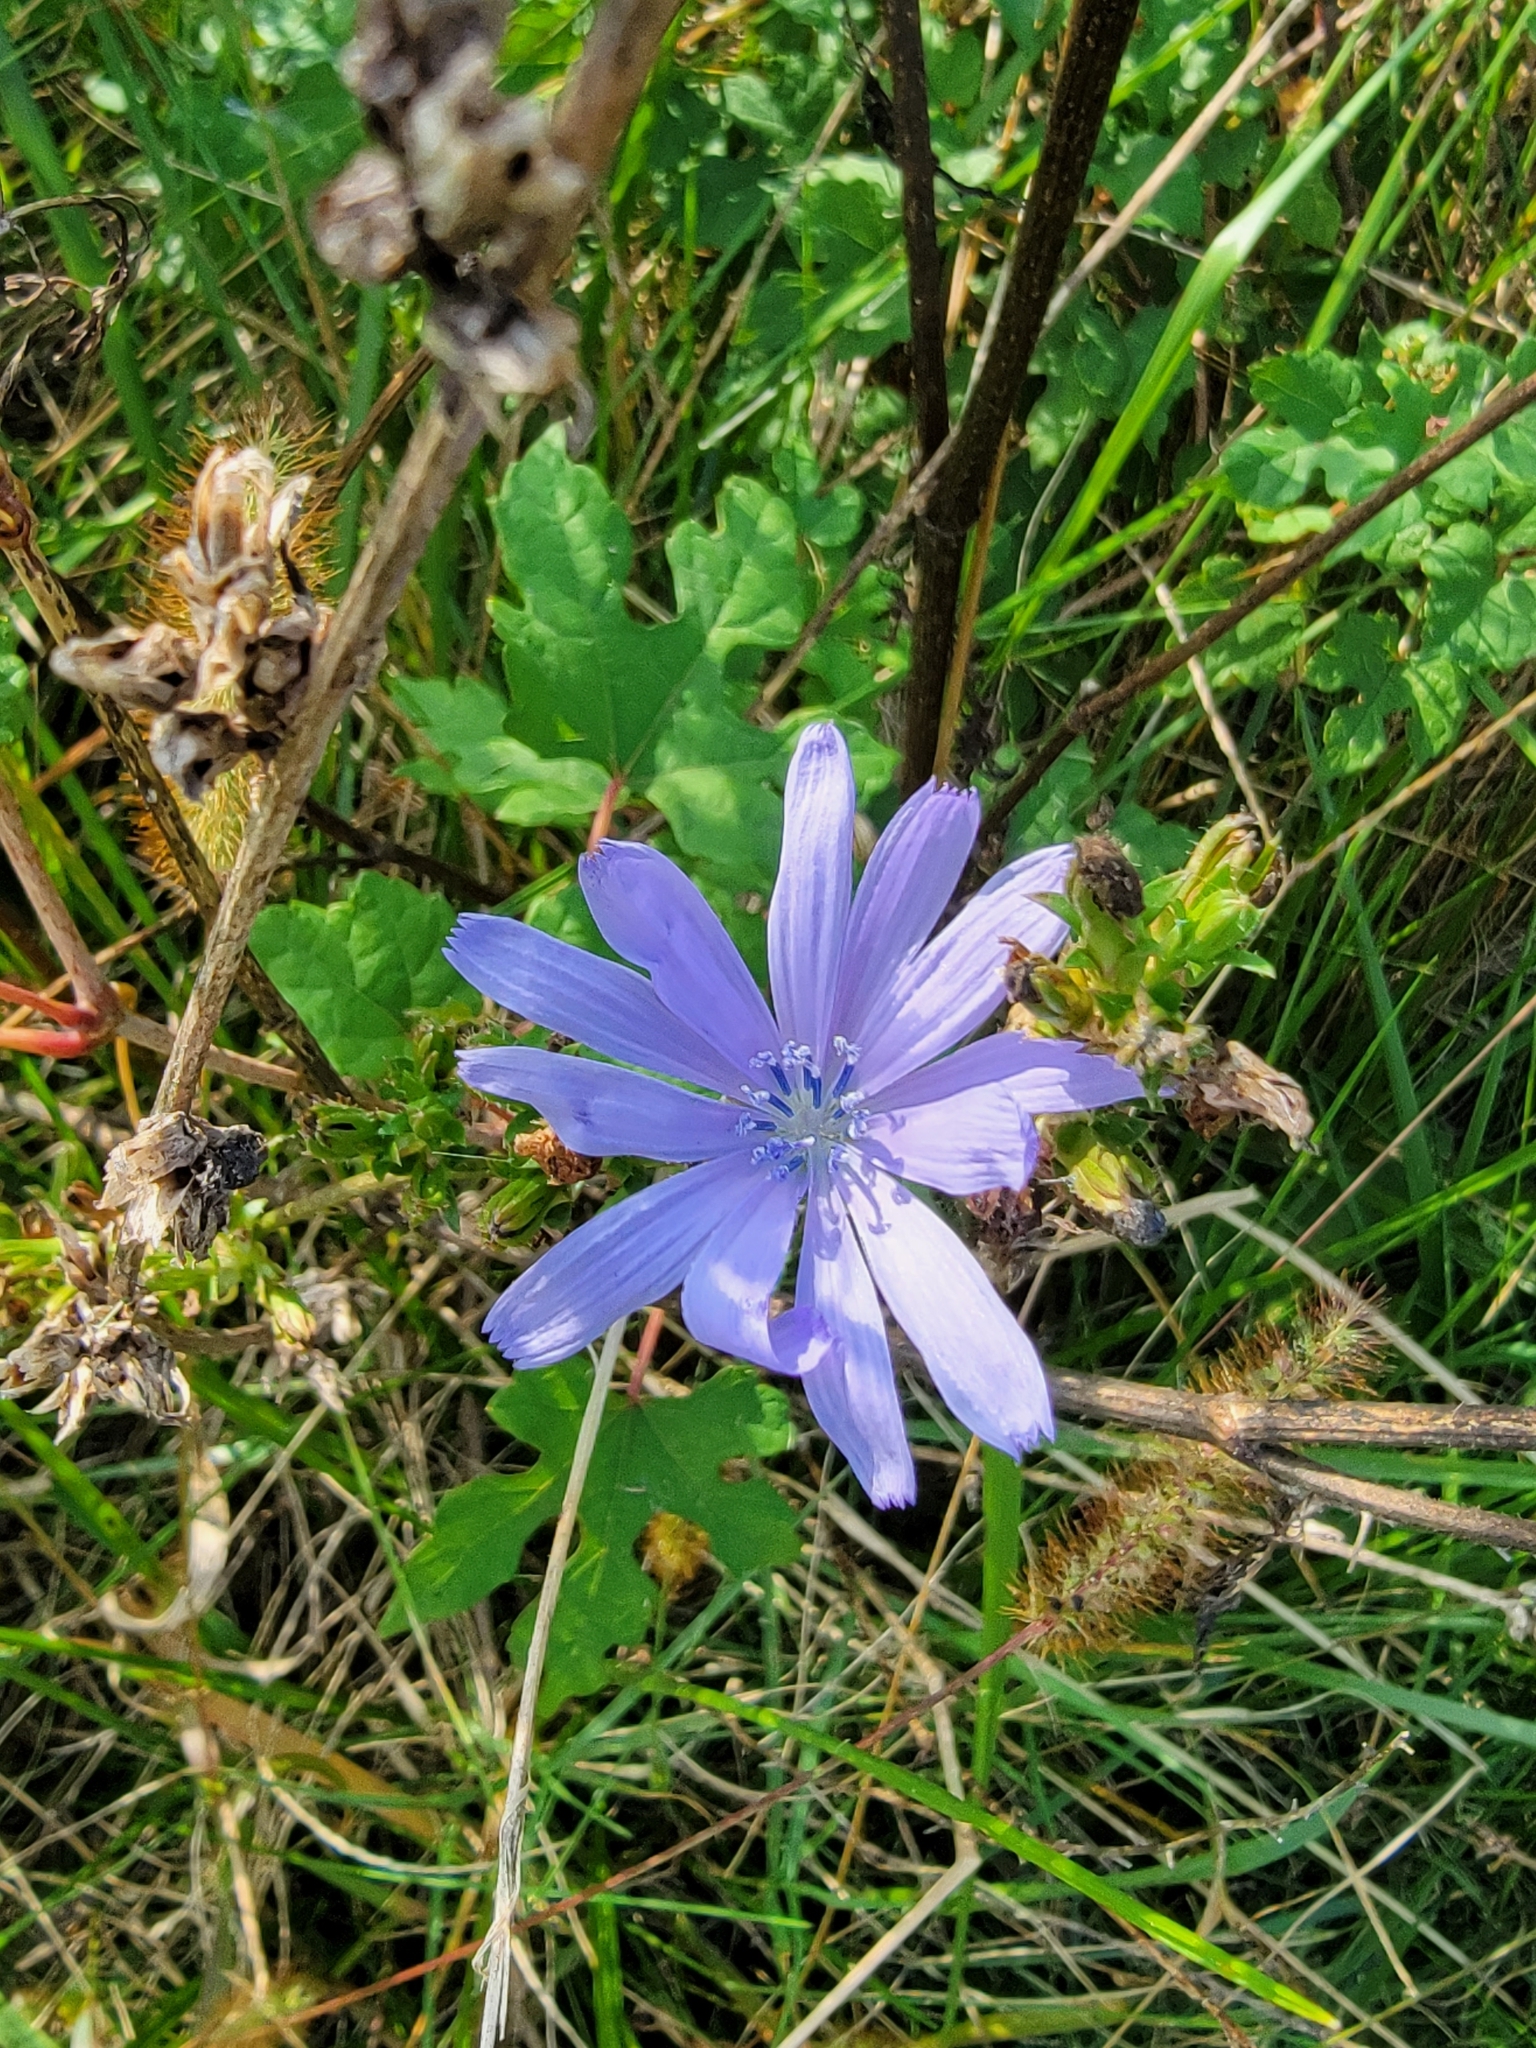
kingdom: Plantae
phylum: Tracheophyta
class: Magnoliopsida
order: Asterales
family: Asteraceae
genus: Cichorium
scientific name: Cichorium intybus
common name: Chicory
